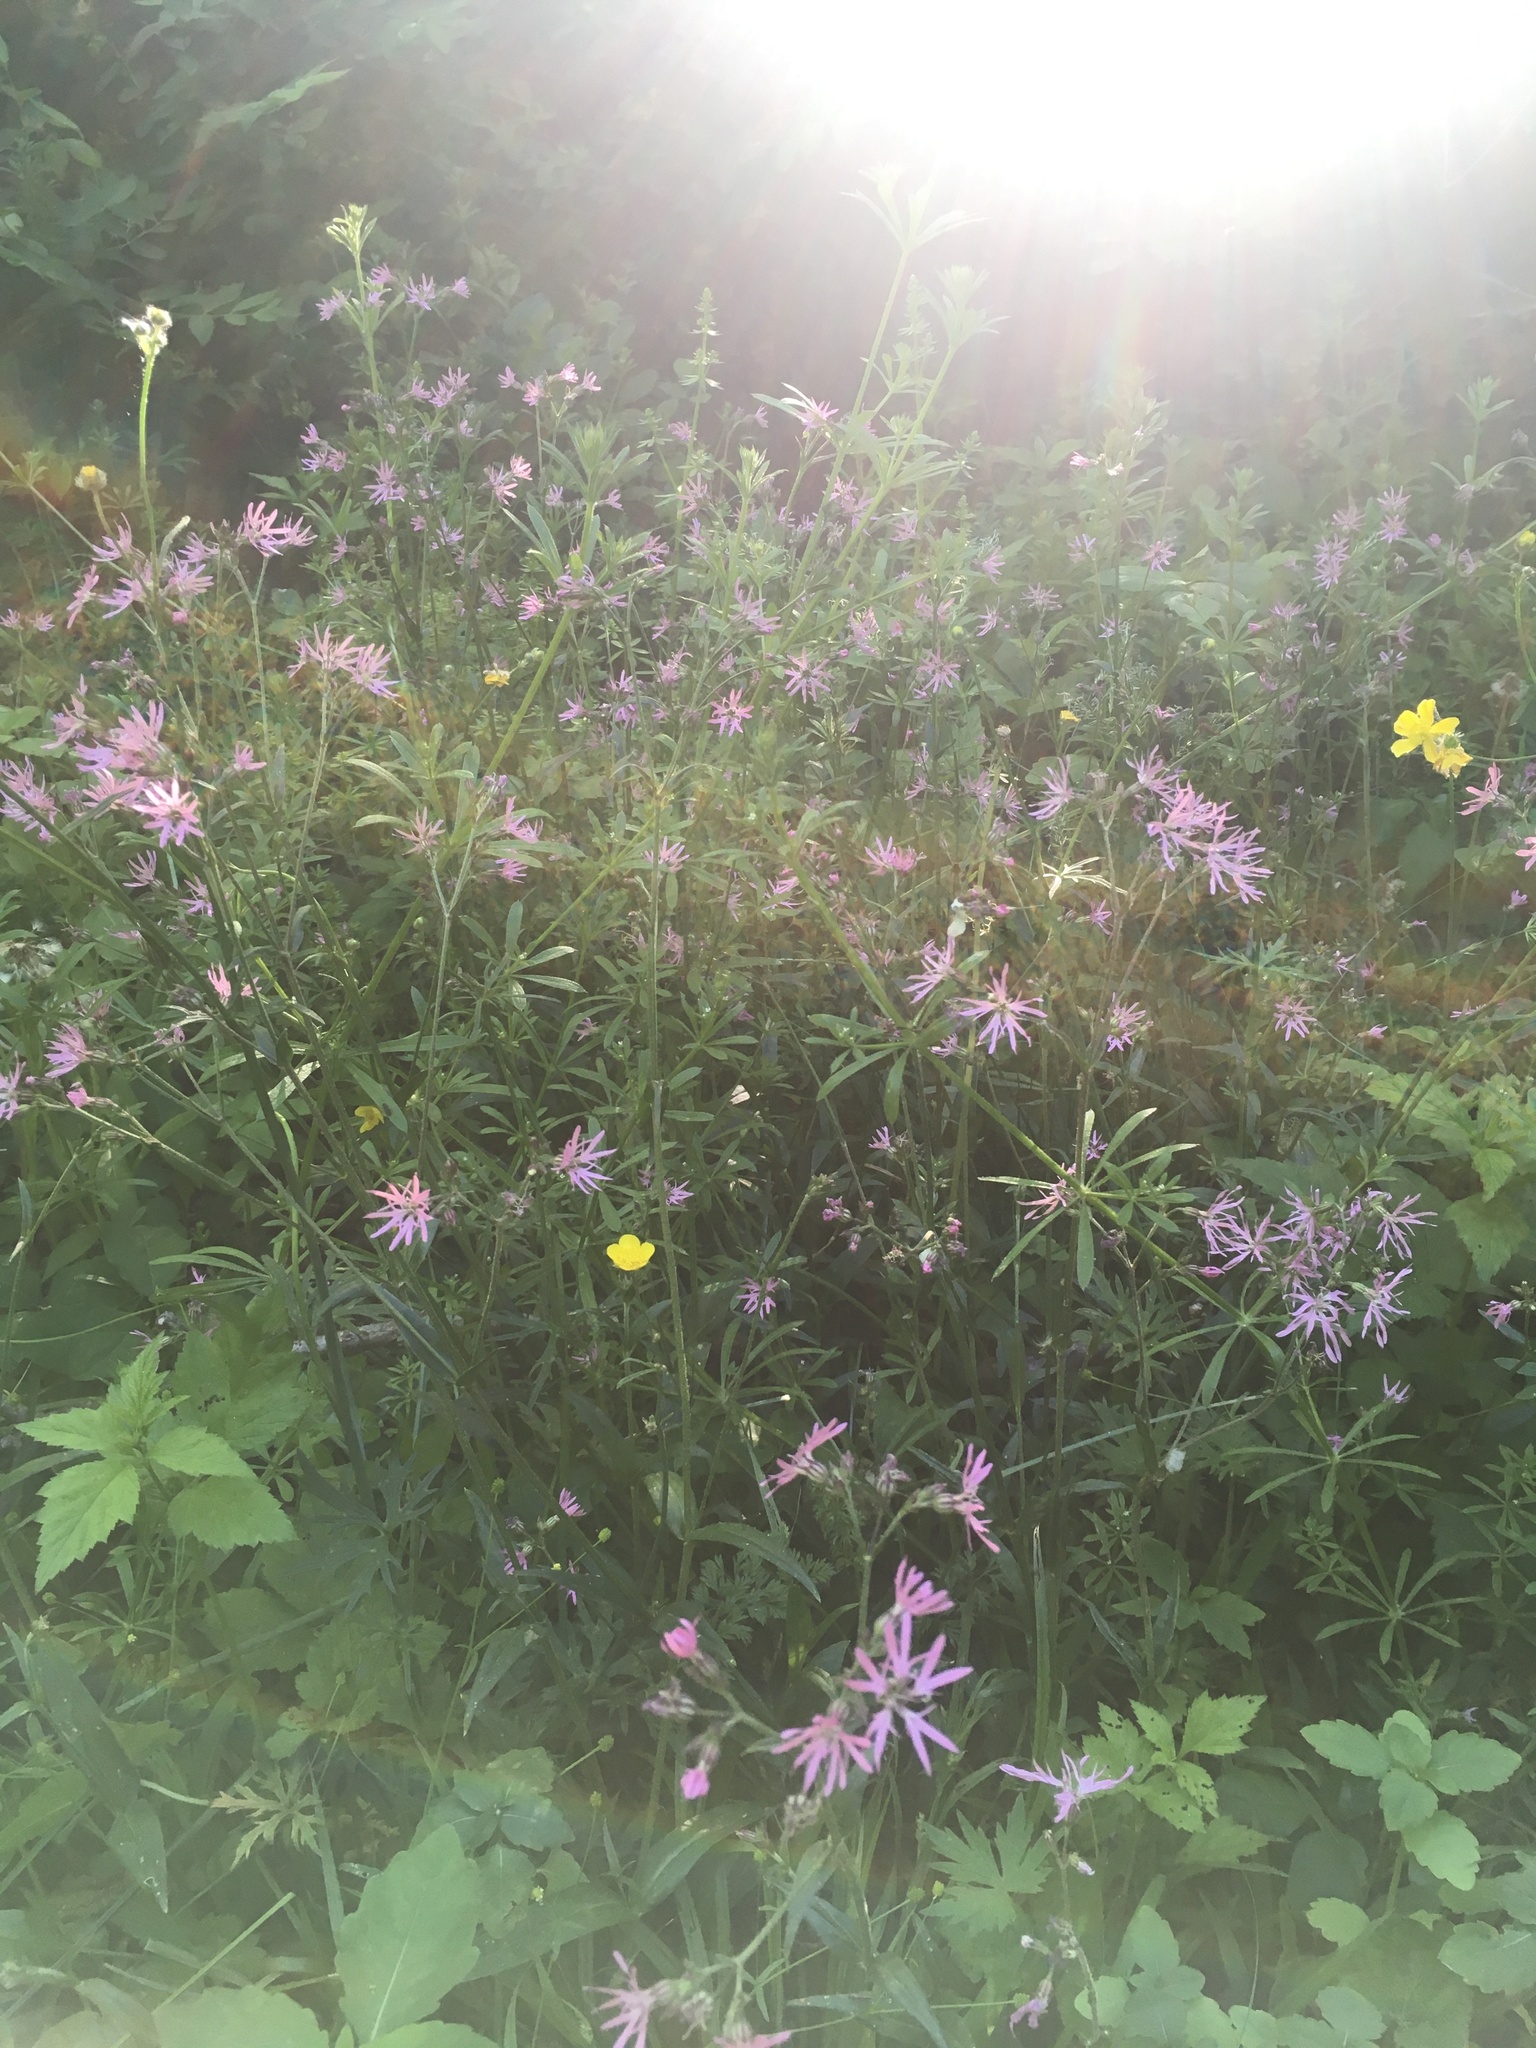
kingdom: Plantae
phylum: Tracheophyta
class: Magnoliopsida
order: Caryophyllales
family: Caryophyllaceae
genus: Silene
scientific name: Silene flos-cuculi
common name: Ragged-robin
